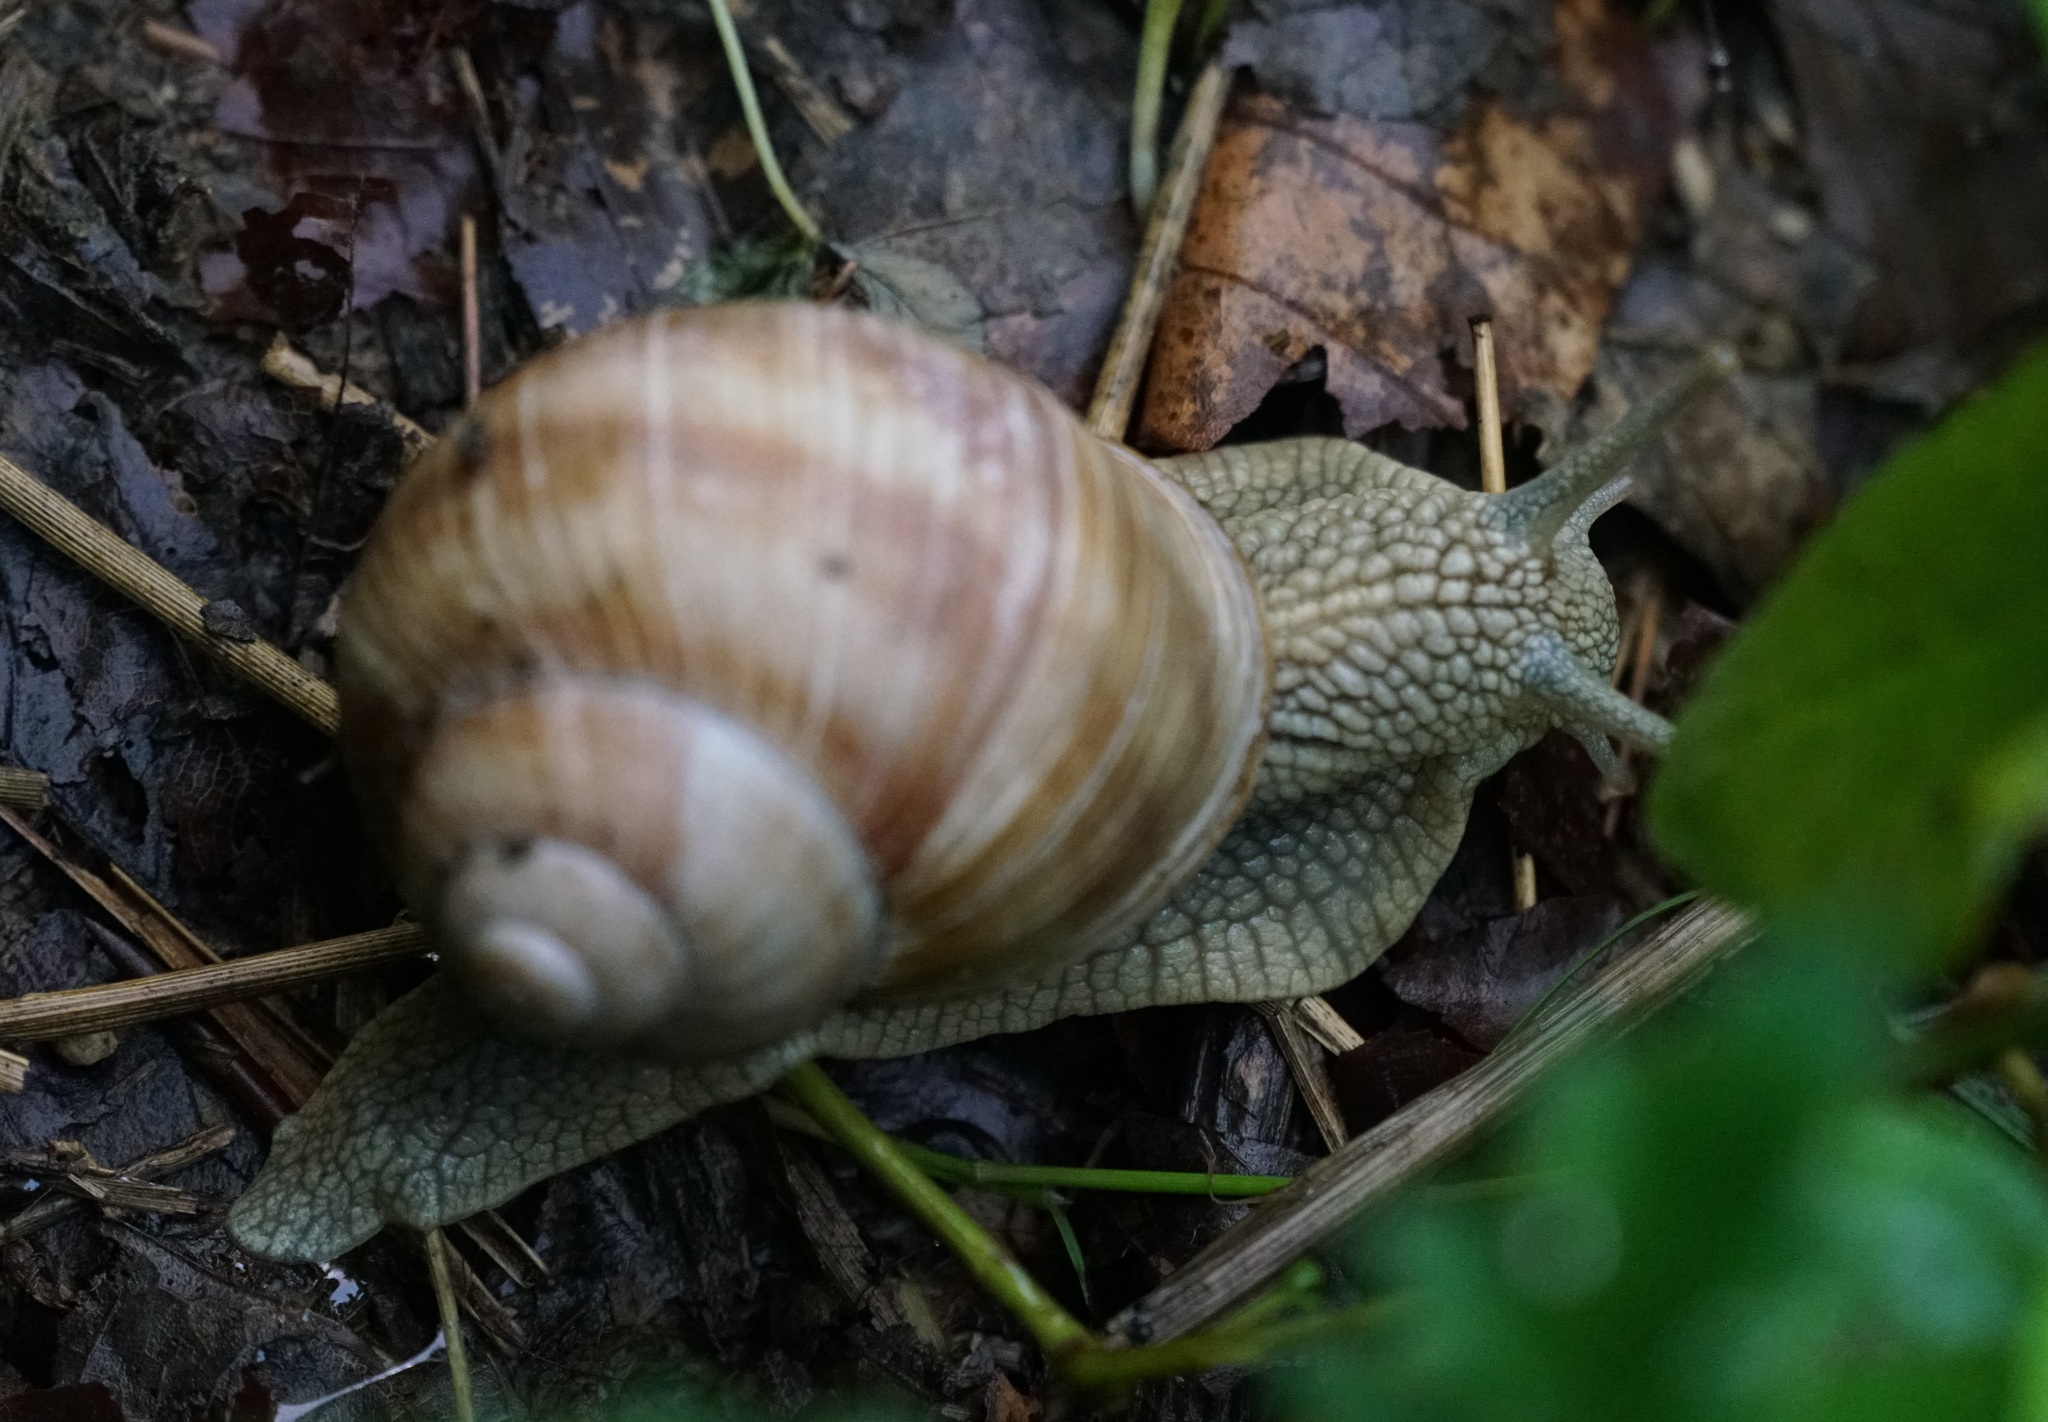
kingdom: Animalia
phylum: Mollusca
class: Gastropoda
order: Stylommatophora
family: Helicidae
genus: Helix
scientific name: Helix pomatia
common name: Roman snail
